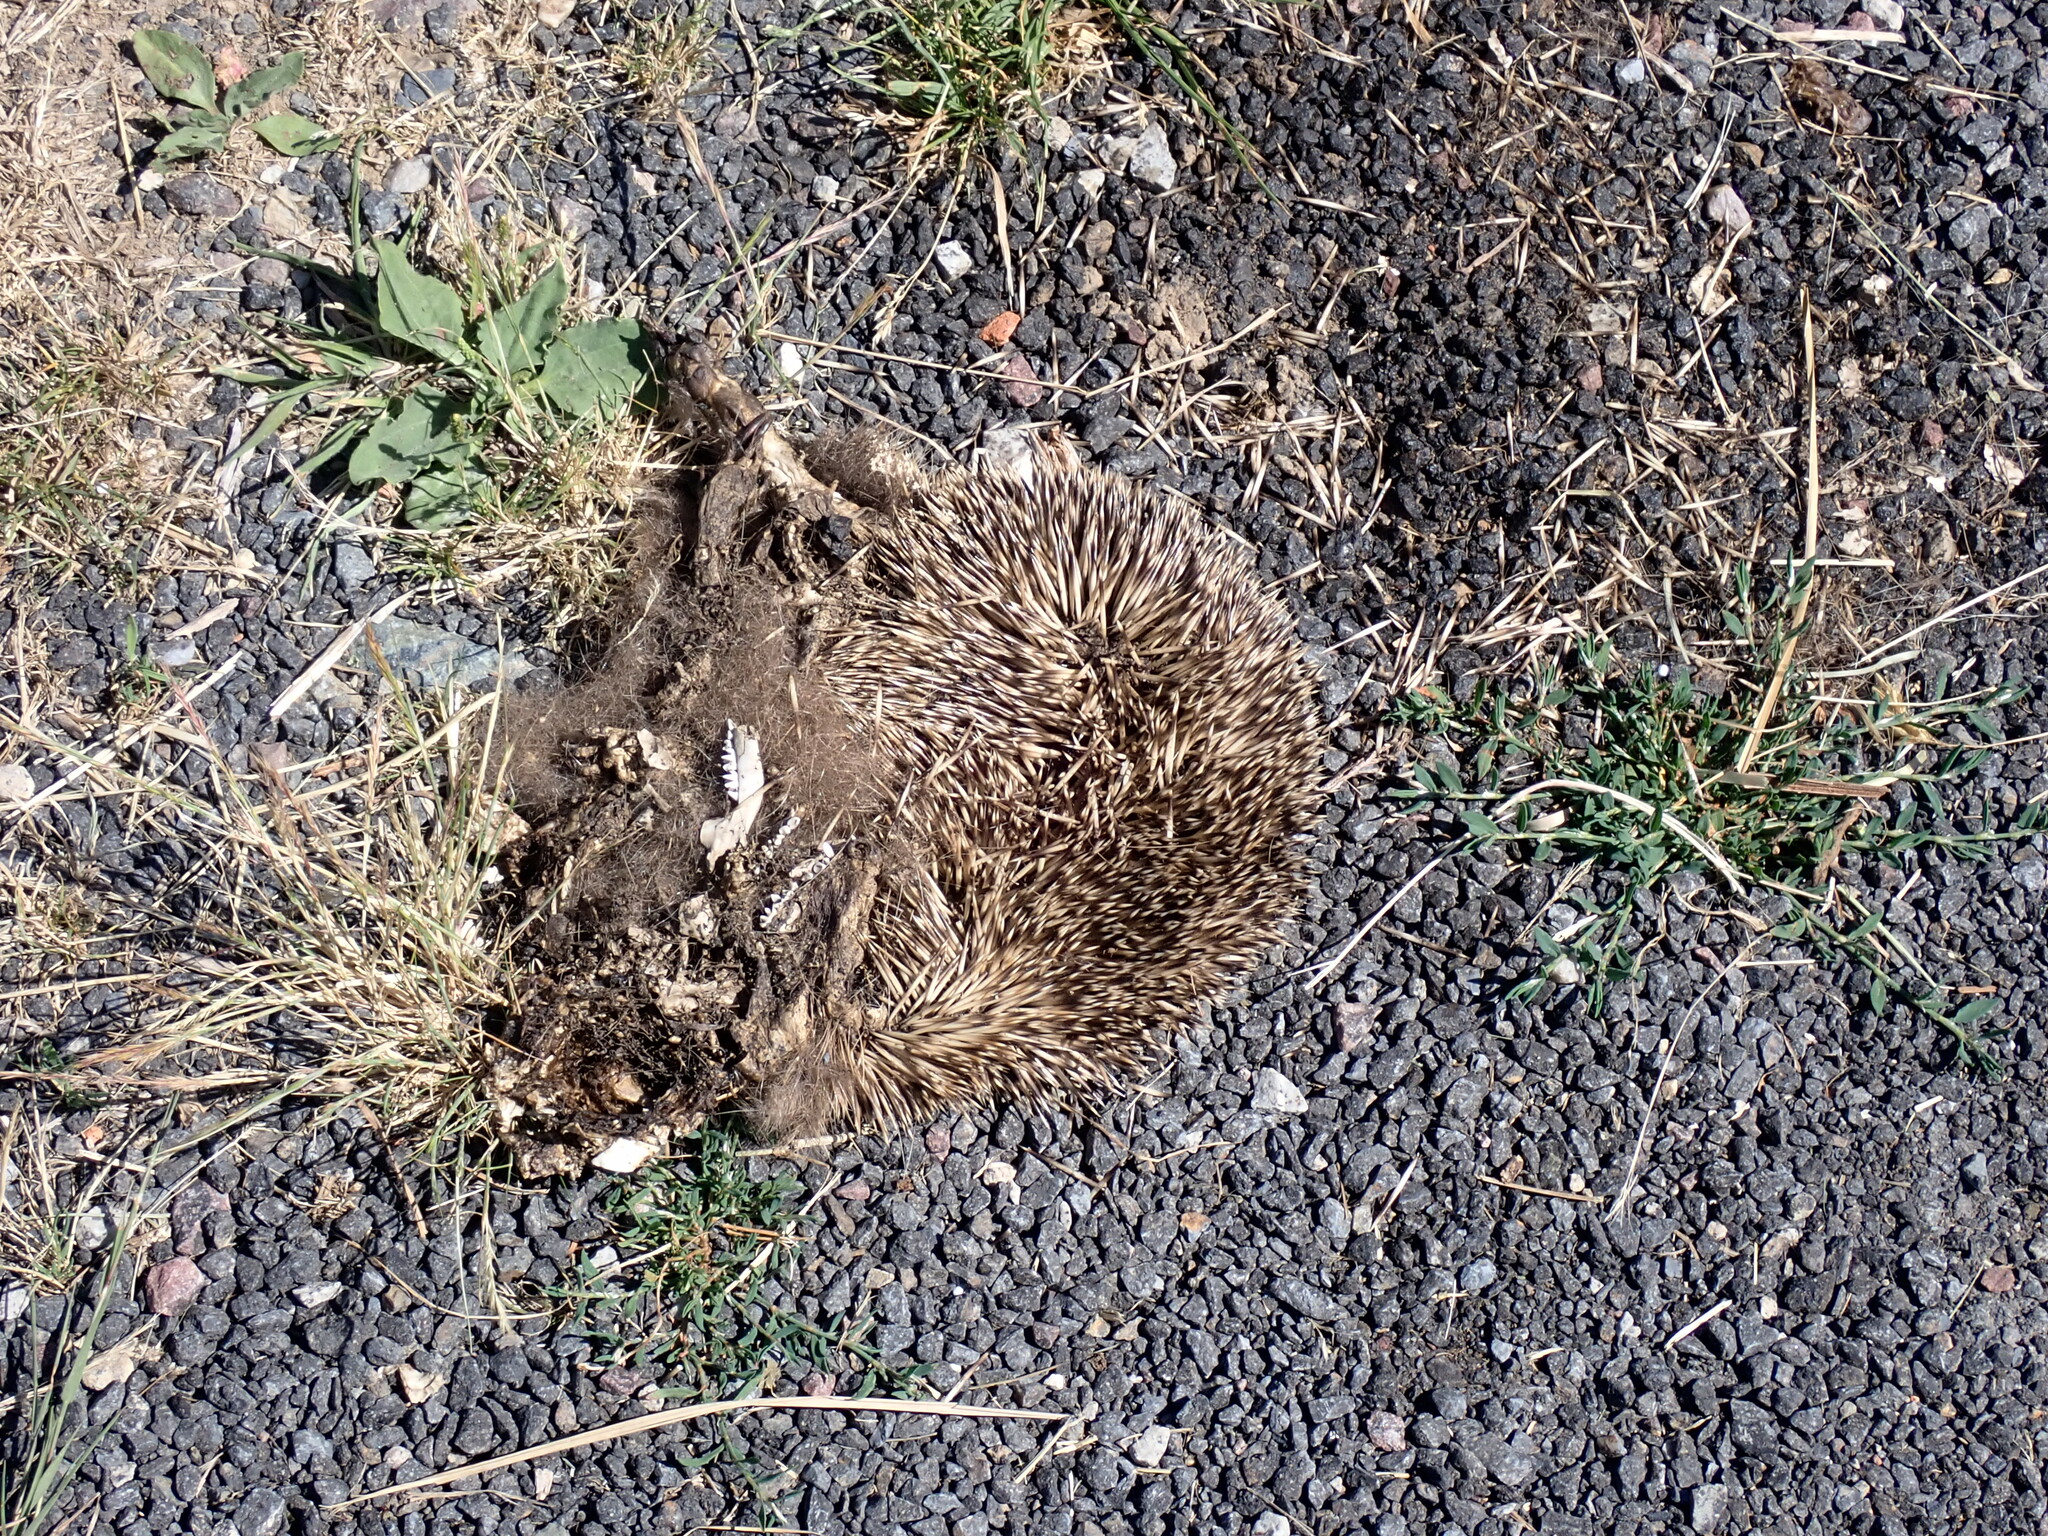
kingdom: Animalia
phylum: Chordata
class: Mammalia
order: Erinaceomorpha
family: Erinaceidae
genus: Erinaceus
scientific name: Erinaceus europaeus
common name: West european hedgehog
